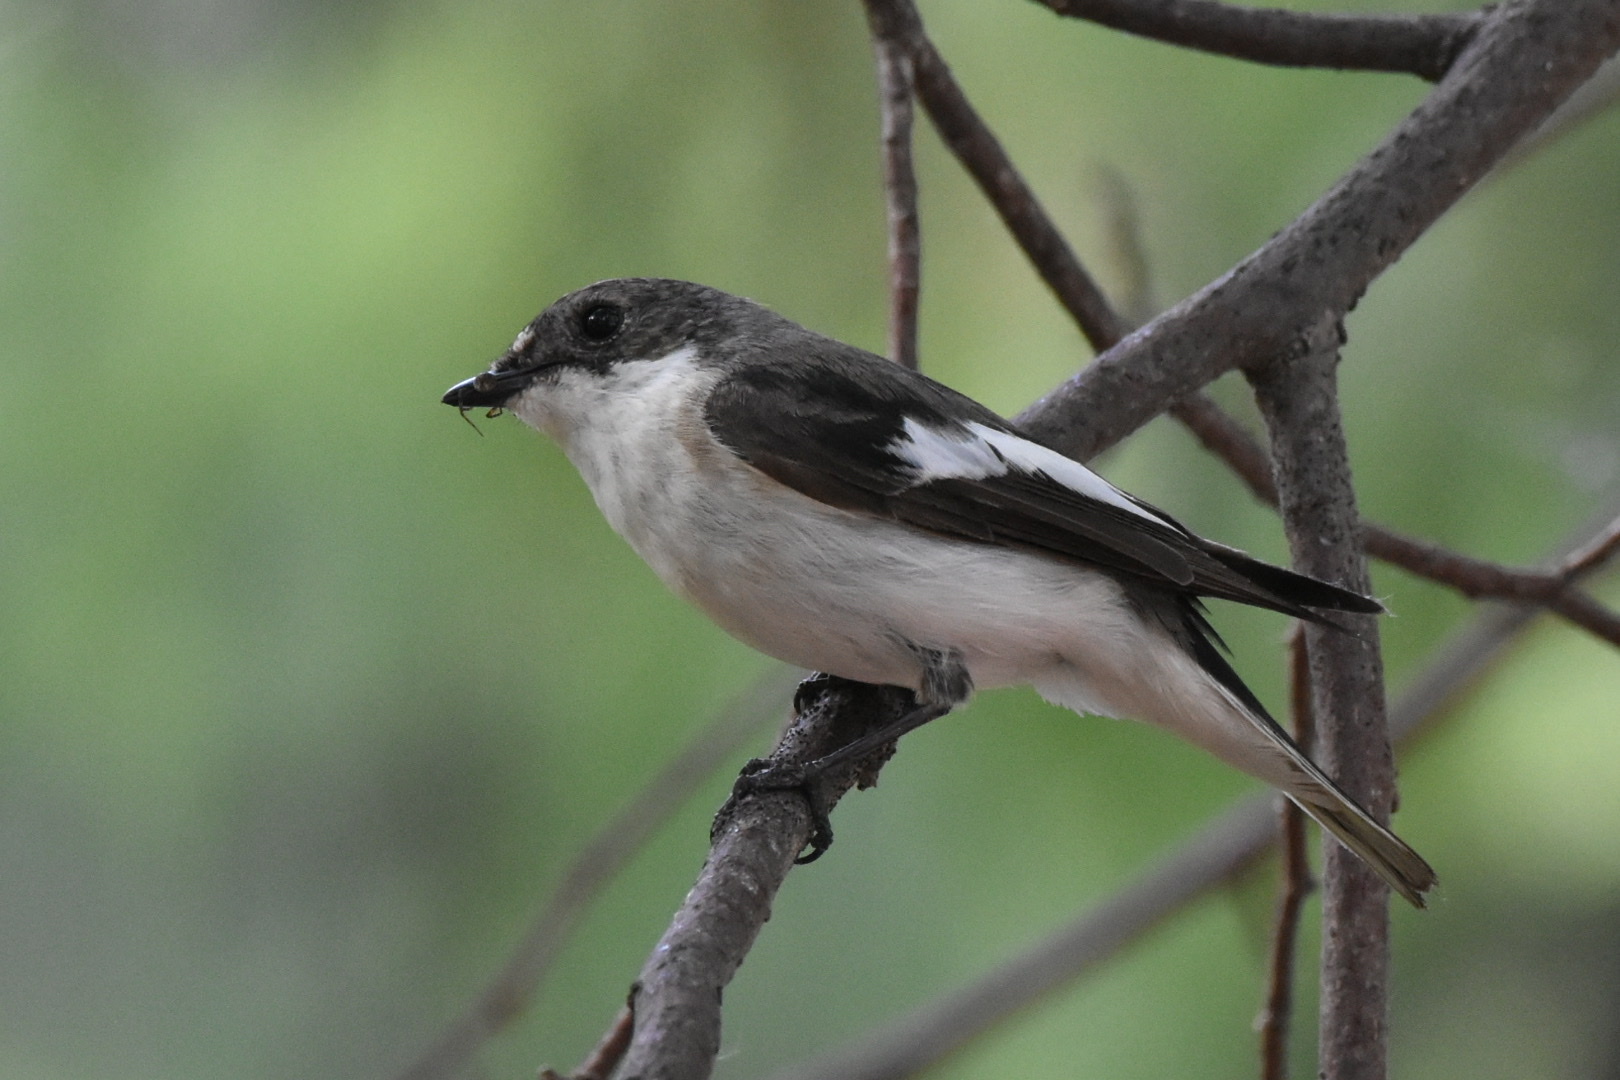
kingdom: Animalia
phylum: Chordata
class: Aves
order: Passeriformes
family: Muscicapidae
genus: Ficedula
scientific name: Ficedula hypoleuca
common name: European pied flycatcher
